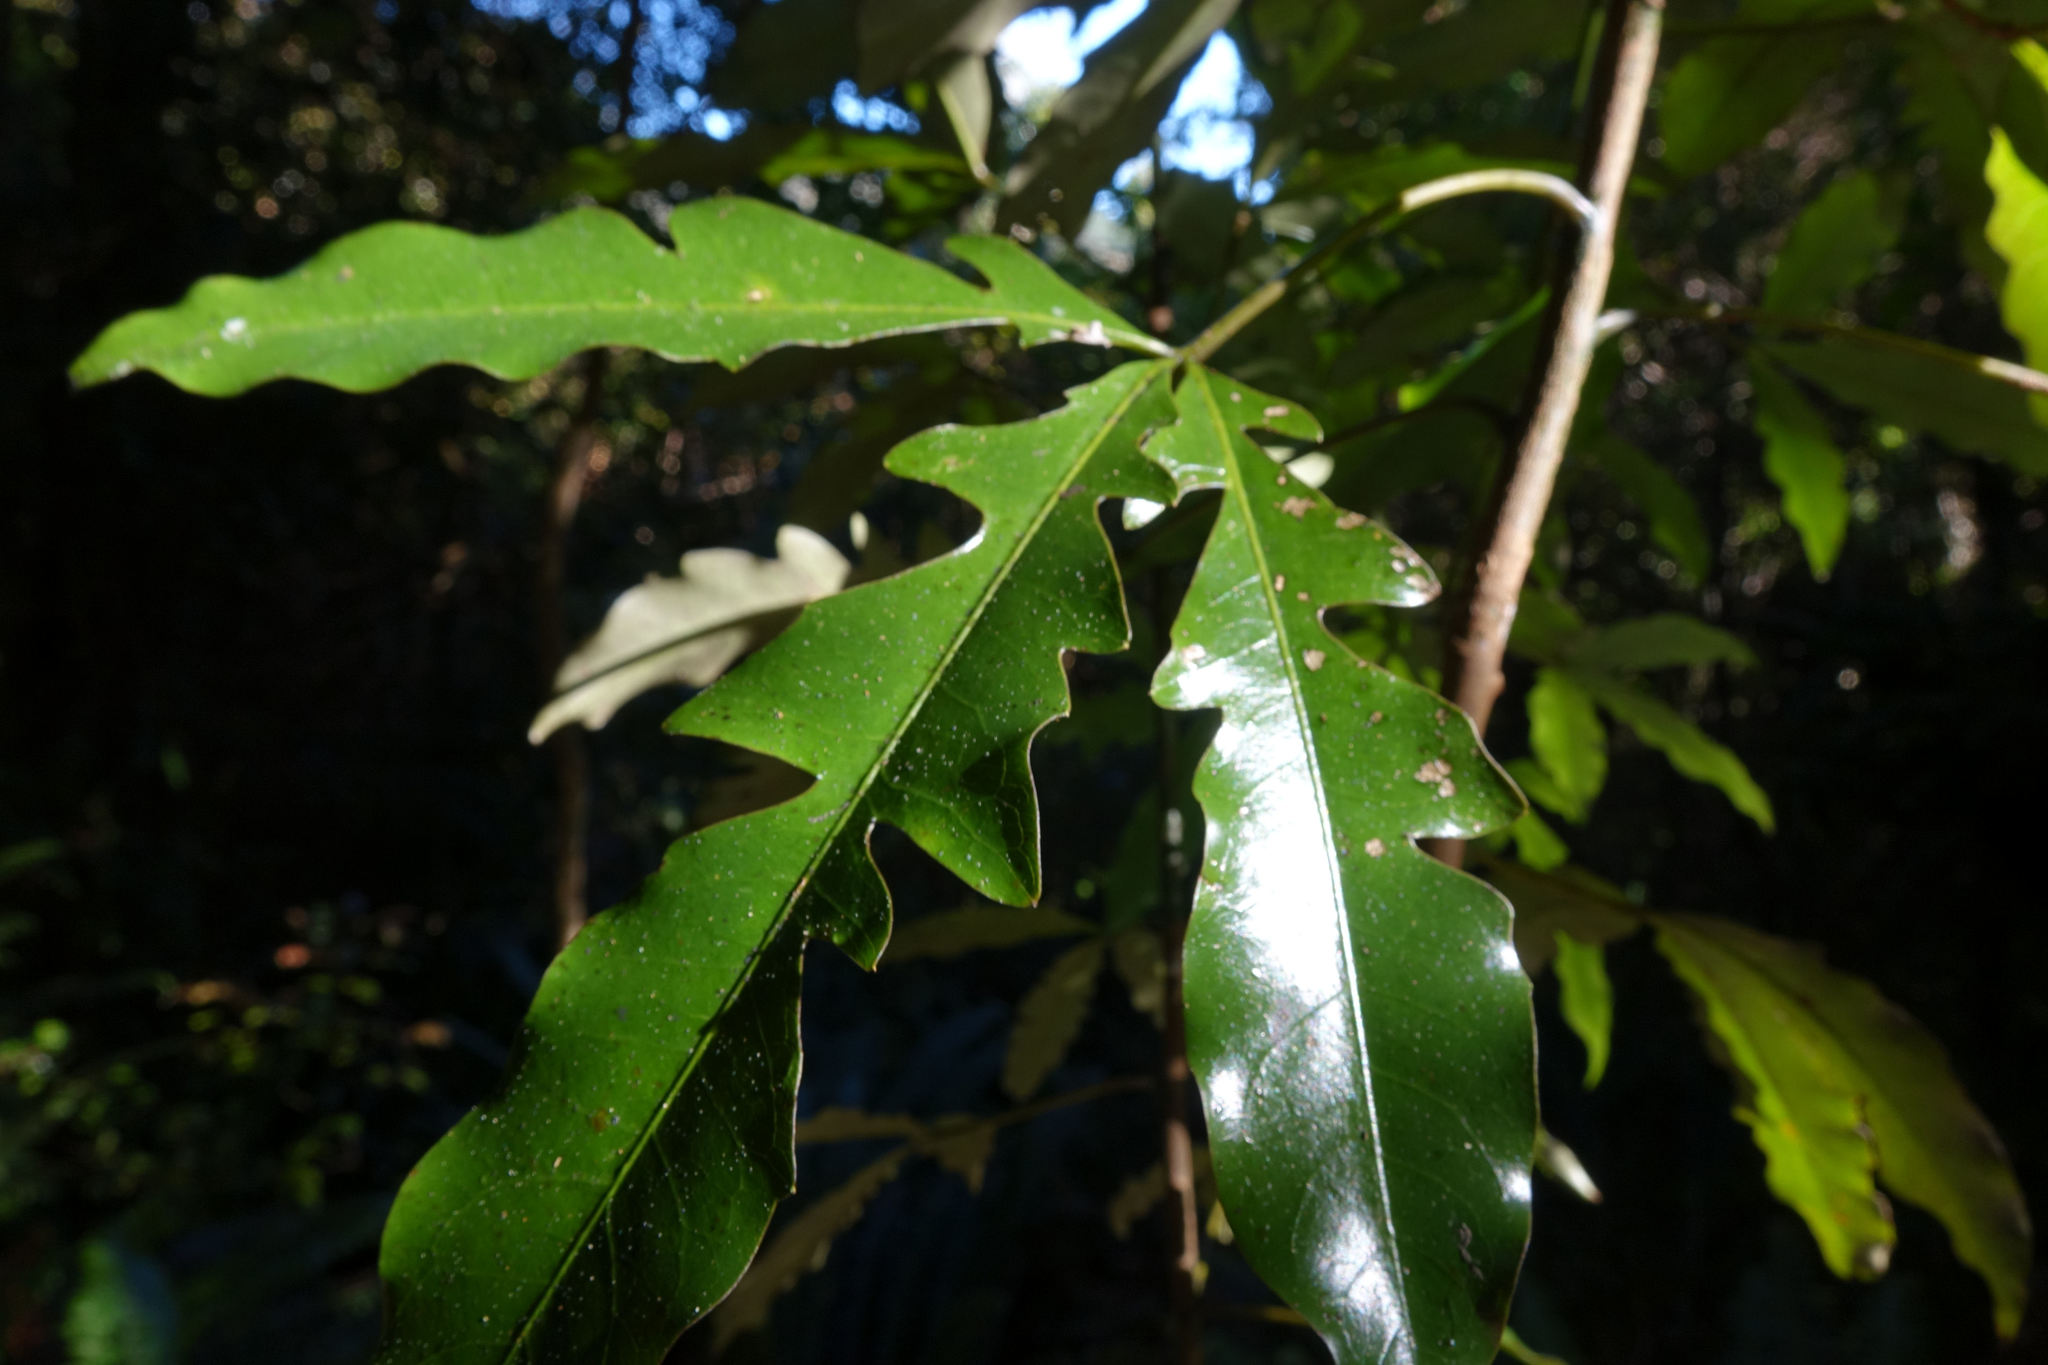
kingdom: Plantae
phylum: Tracheophyta
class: Magnoliopsida
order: Apiales
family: Araliaceae
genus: Raukaua
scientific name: Raukaua edgerleyi
